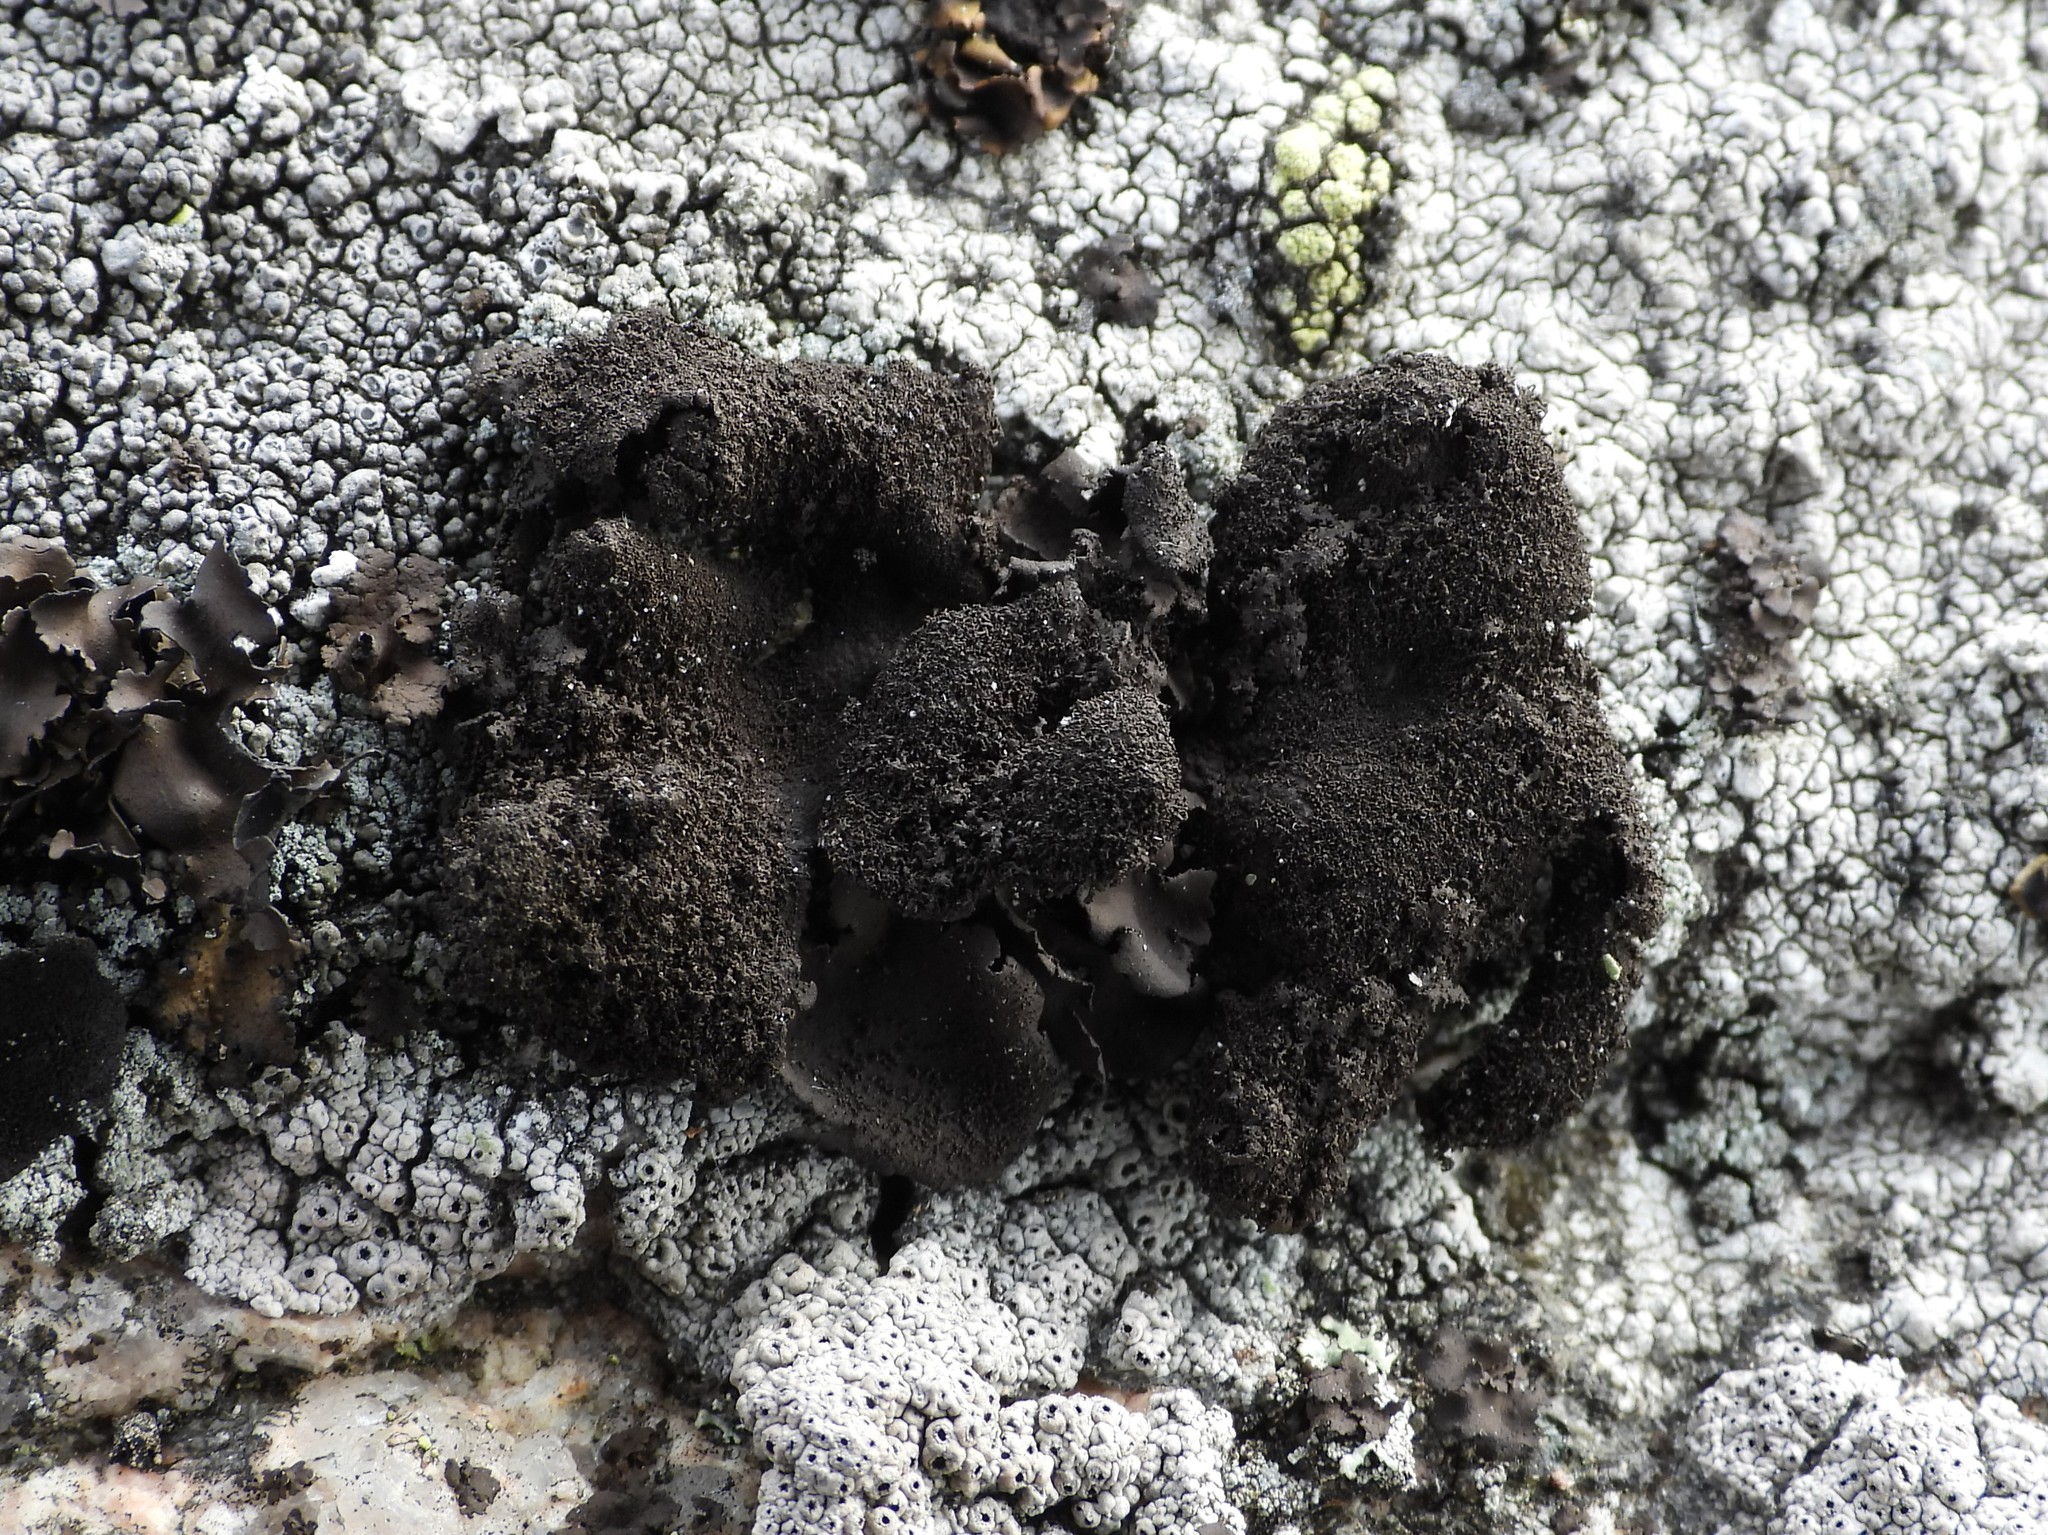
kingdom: Fungi
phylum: Ascomycota
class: Lecanoromycetes
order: Umbilicariales
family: Umbilicariaceae
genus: Umbilicaria
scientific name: Umbilicaria deusta
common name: Peppered rock tripe
